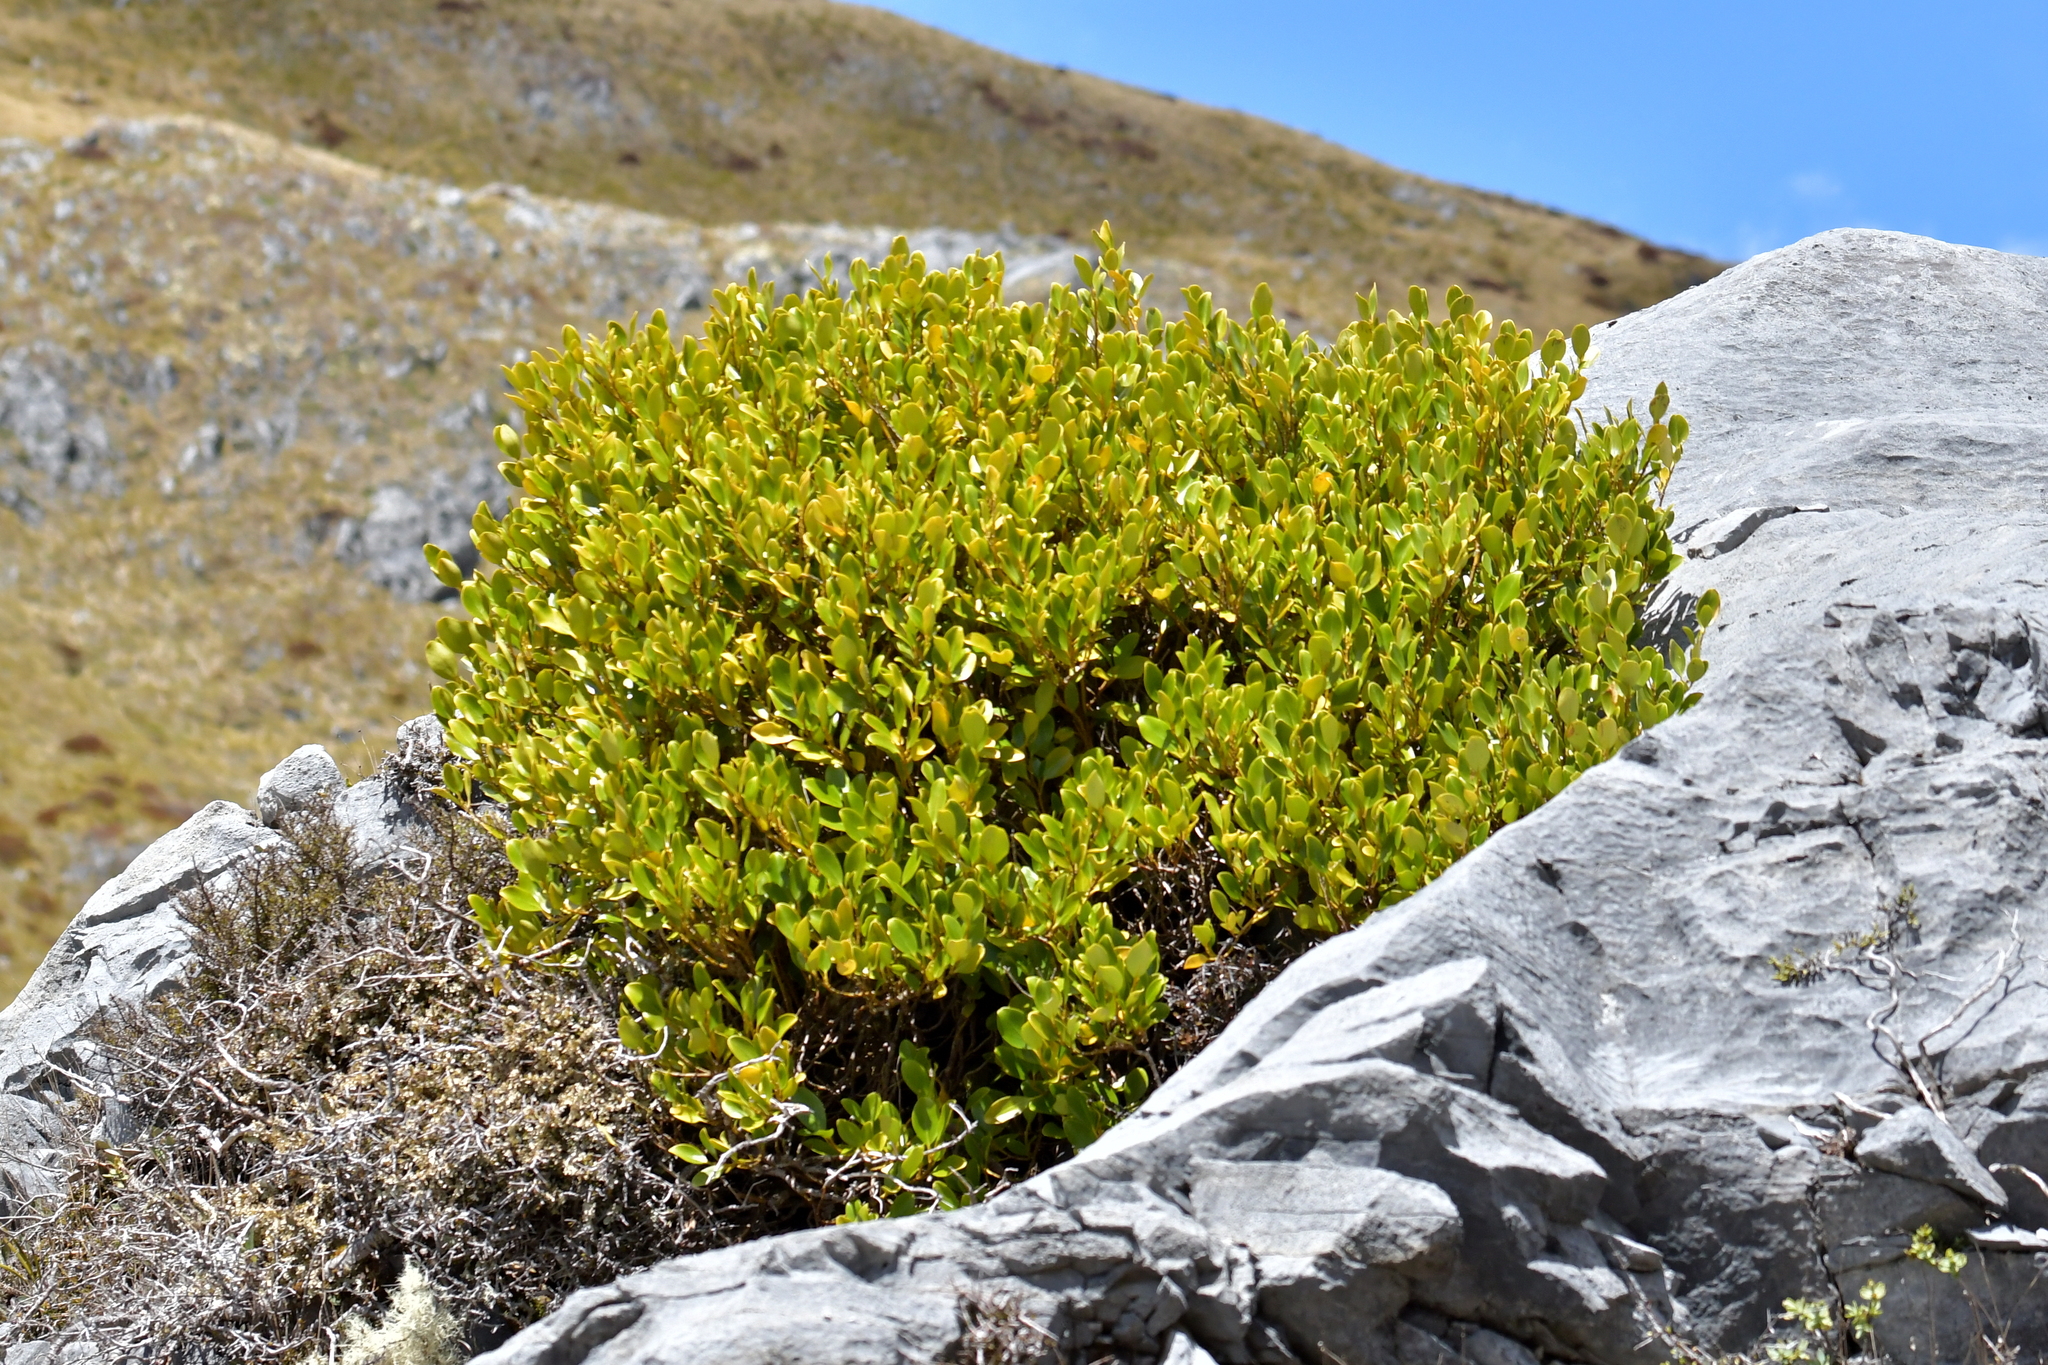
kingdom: Plantae
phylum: Tracheophyta
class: Magnoliopsida
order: Apiales
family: Griseliniaceae
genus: Griselinia
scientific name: Griselinia littoralis
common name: New zealand broadleaf
